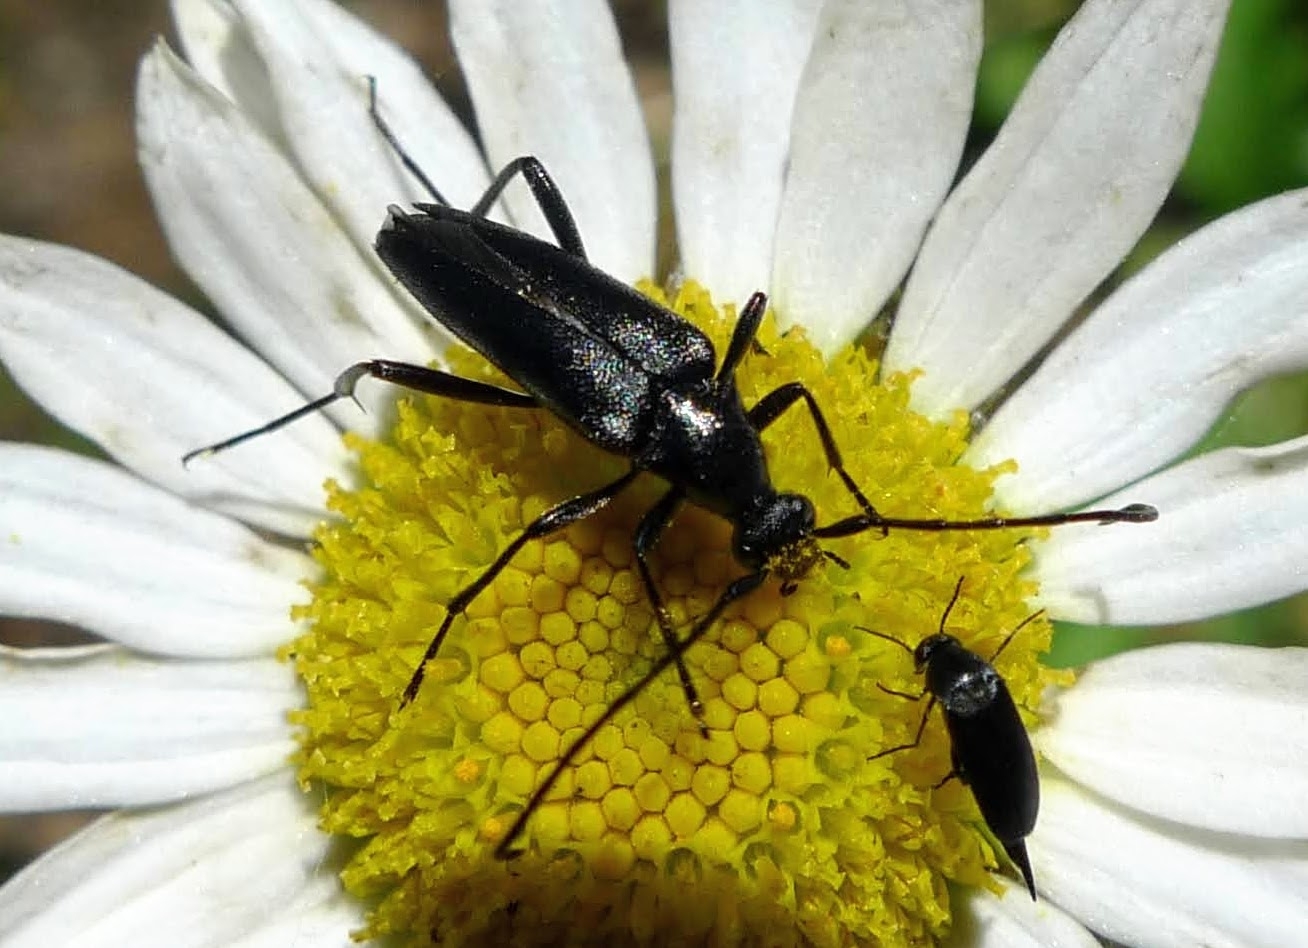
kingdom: Animalia
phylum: Arthropoda
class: Insecta
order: Coleoptera
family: Cerambycidae
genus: Stenurella
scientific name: Stenurella nigra
